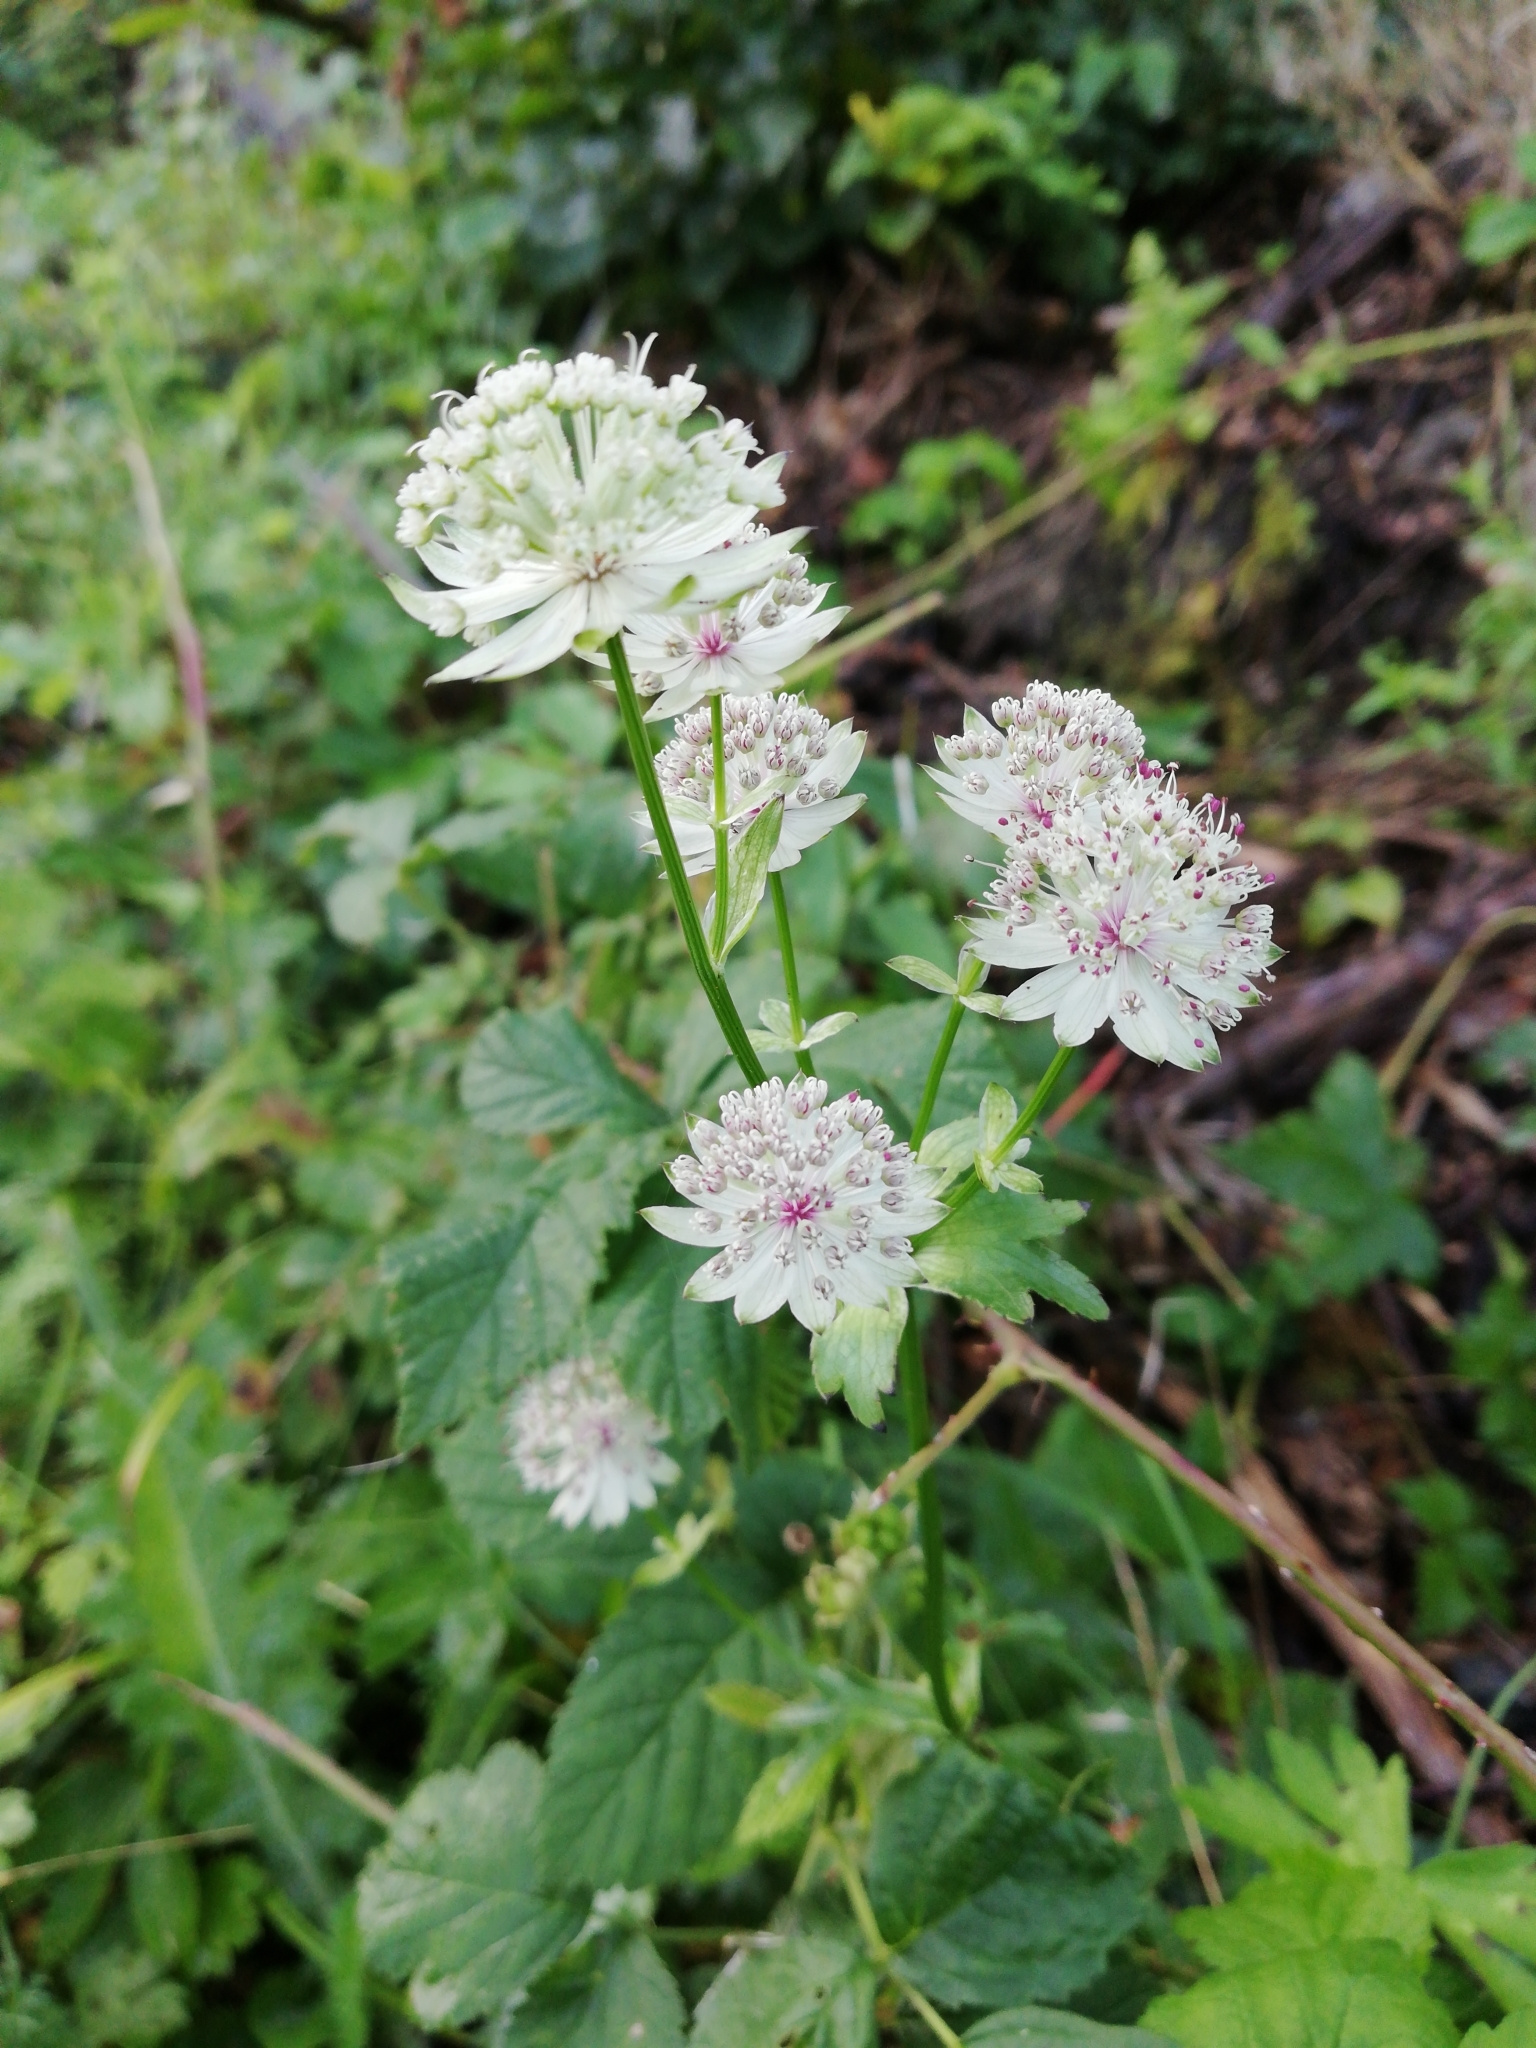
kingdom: Plantae
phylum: Tracheophyta
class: Magnoliopsida
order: Apiales
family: Apiaceae
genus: Astrantia
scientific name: Astrantia major
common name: Greater masterwort
